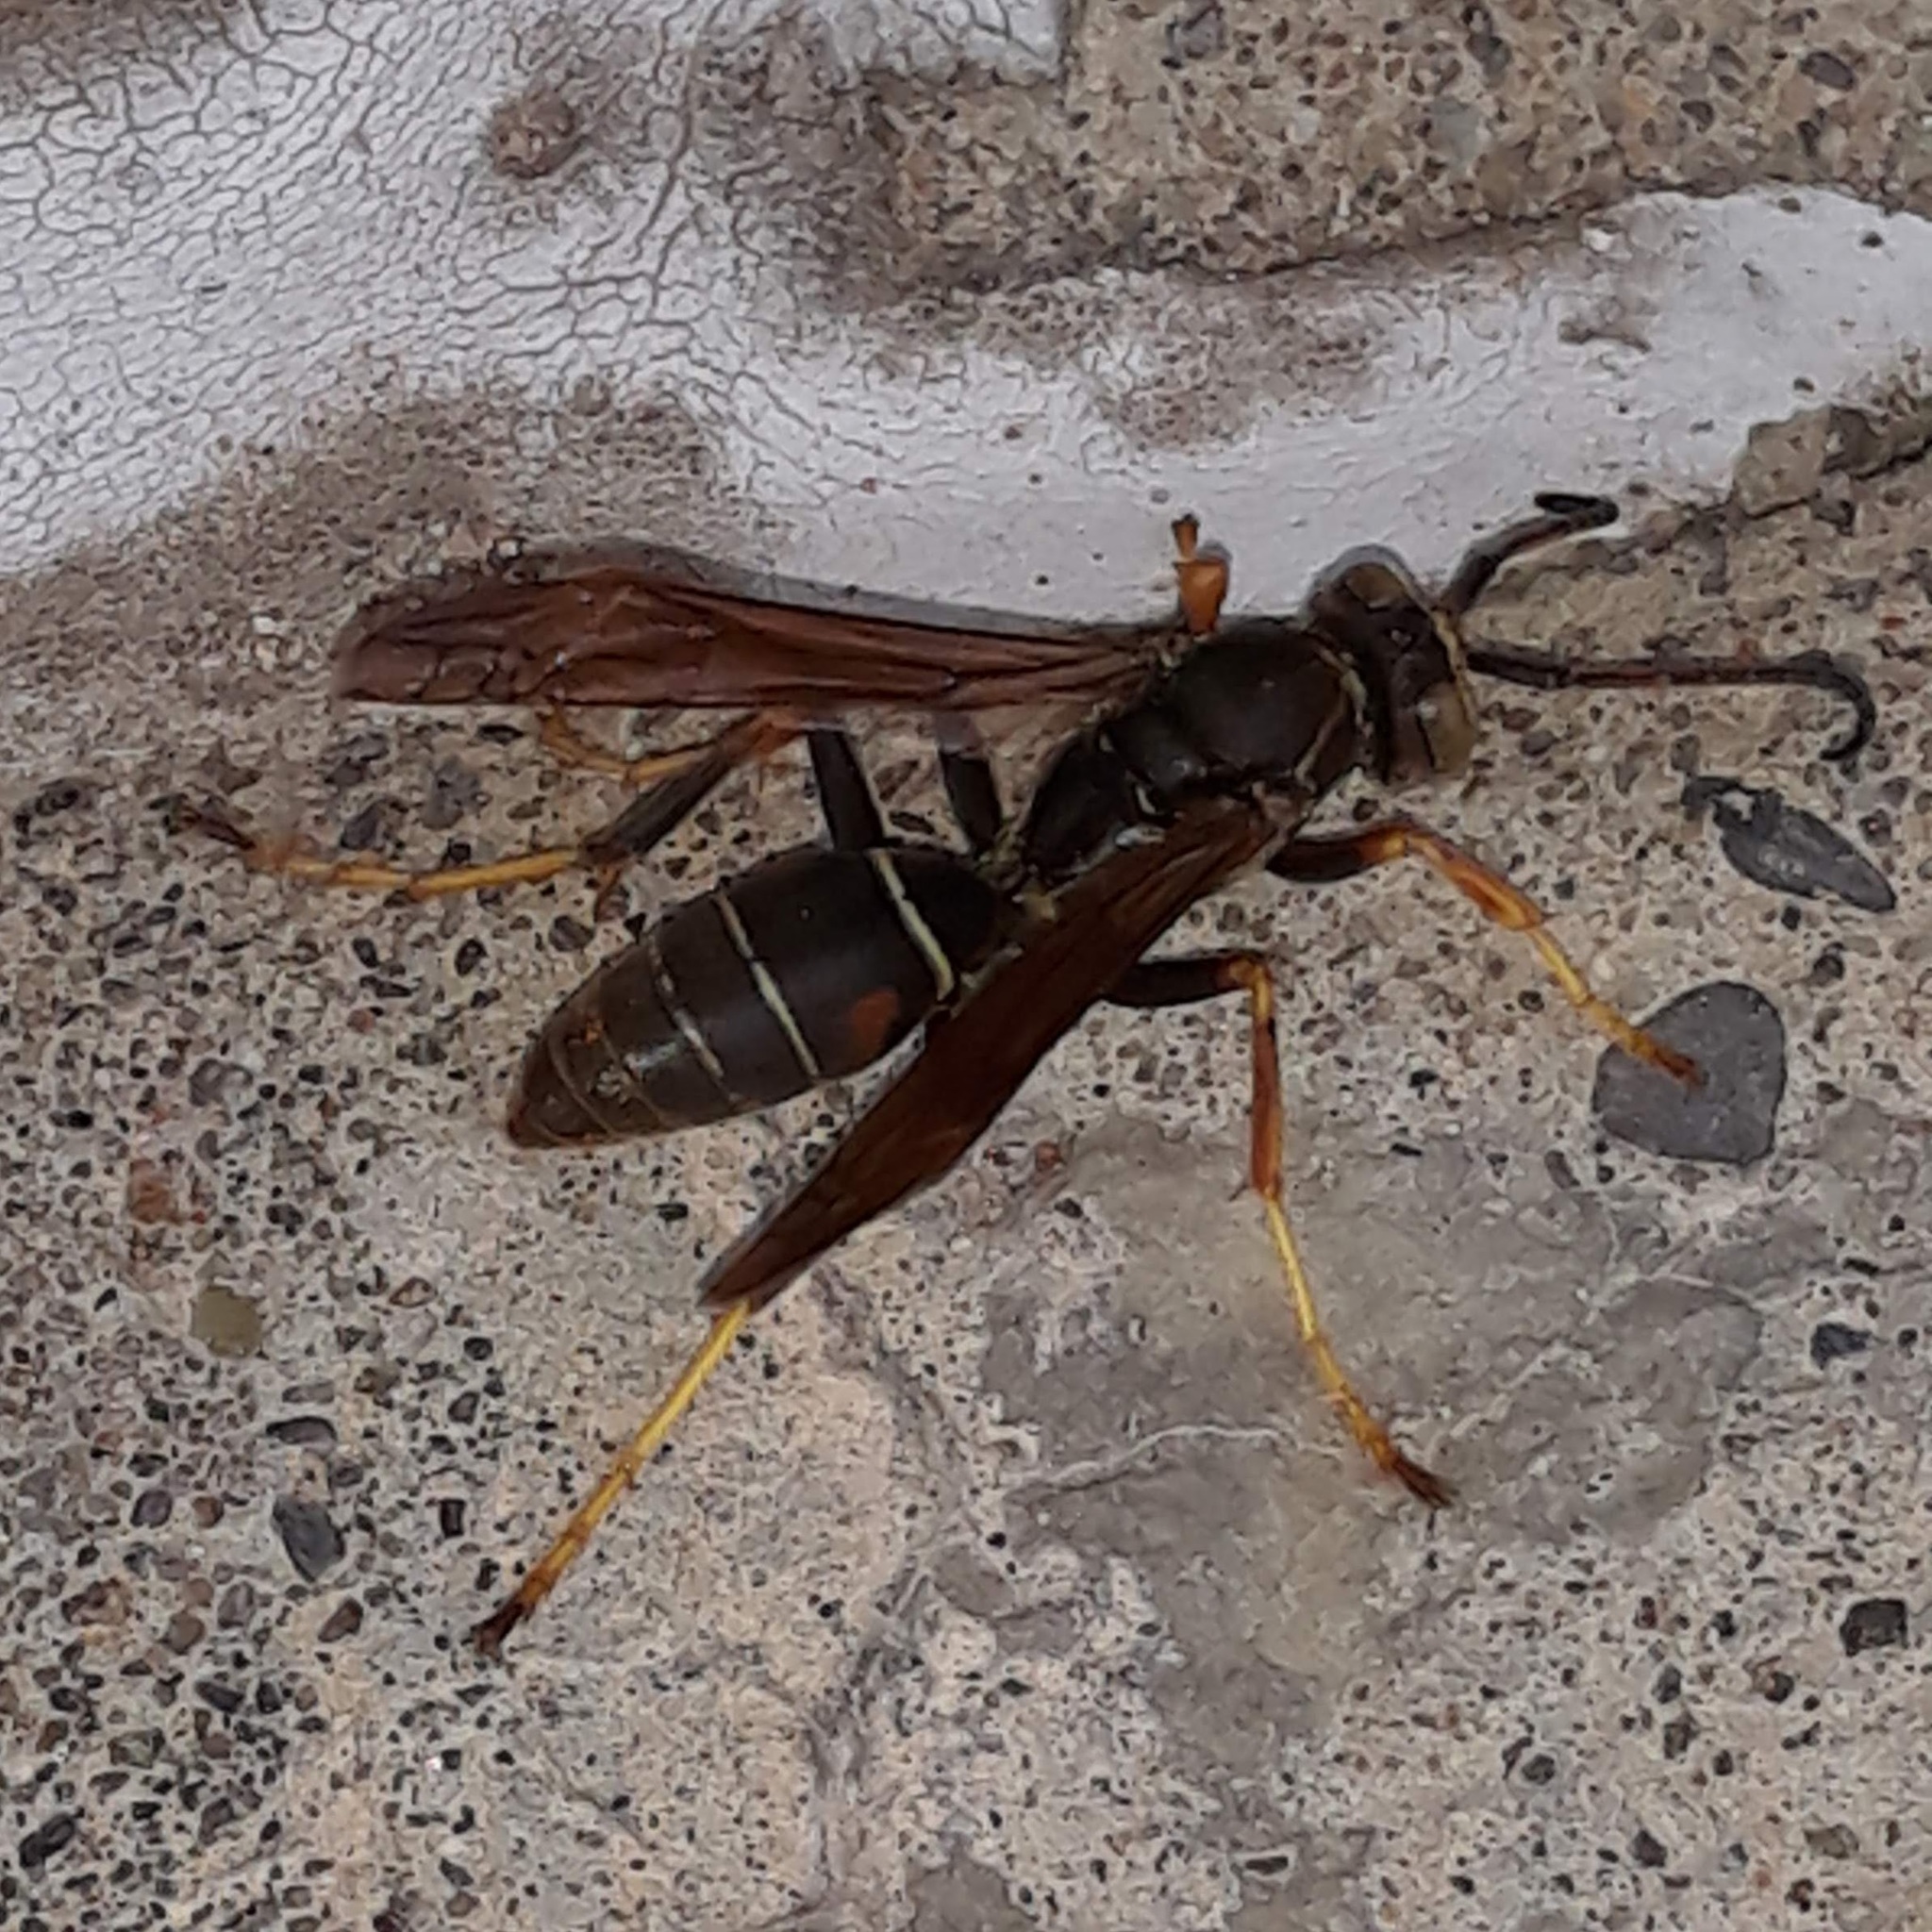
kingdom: Animalia
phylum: Arthropoda
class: Insecta
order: Hymenoptera
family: Eumenidae
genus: Polistes
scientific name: Polistes fuscatus
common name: Dark paper wasp
